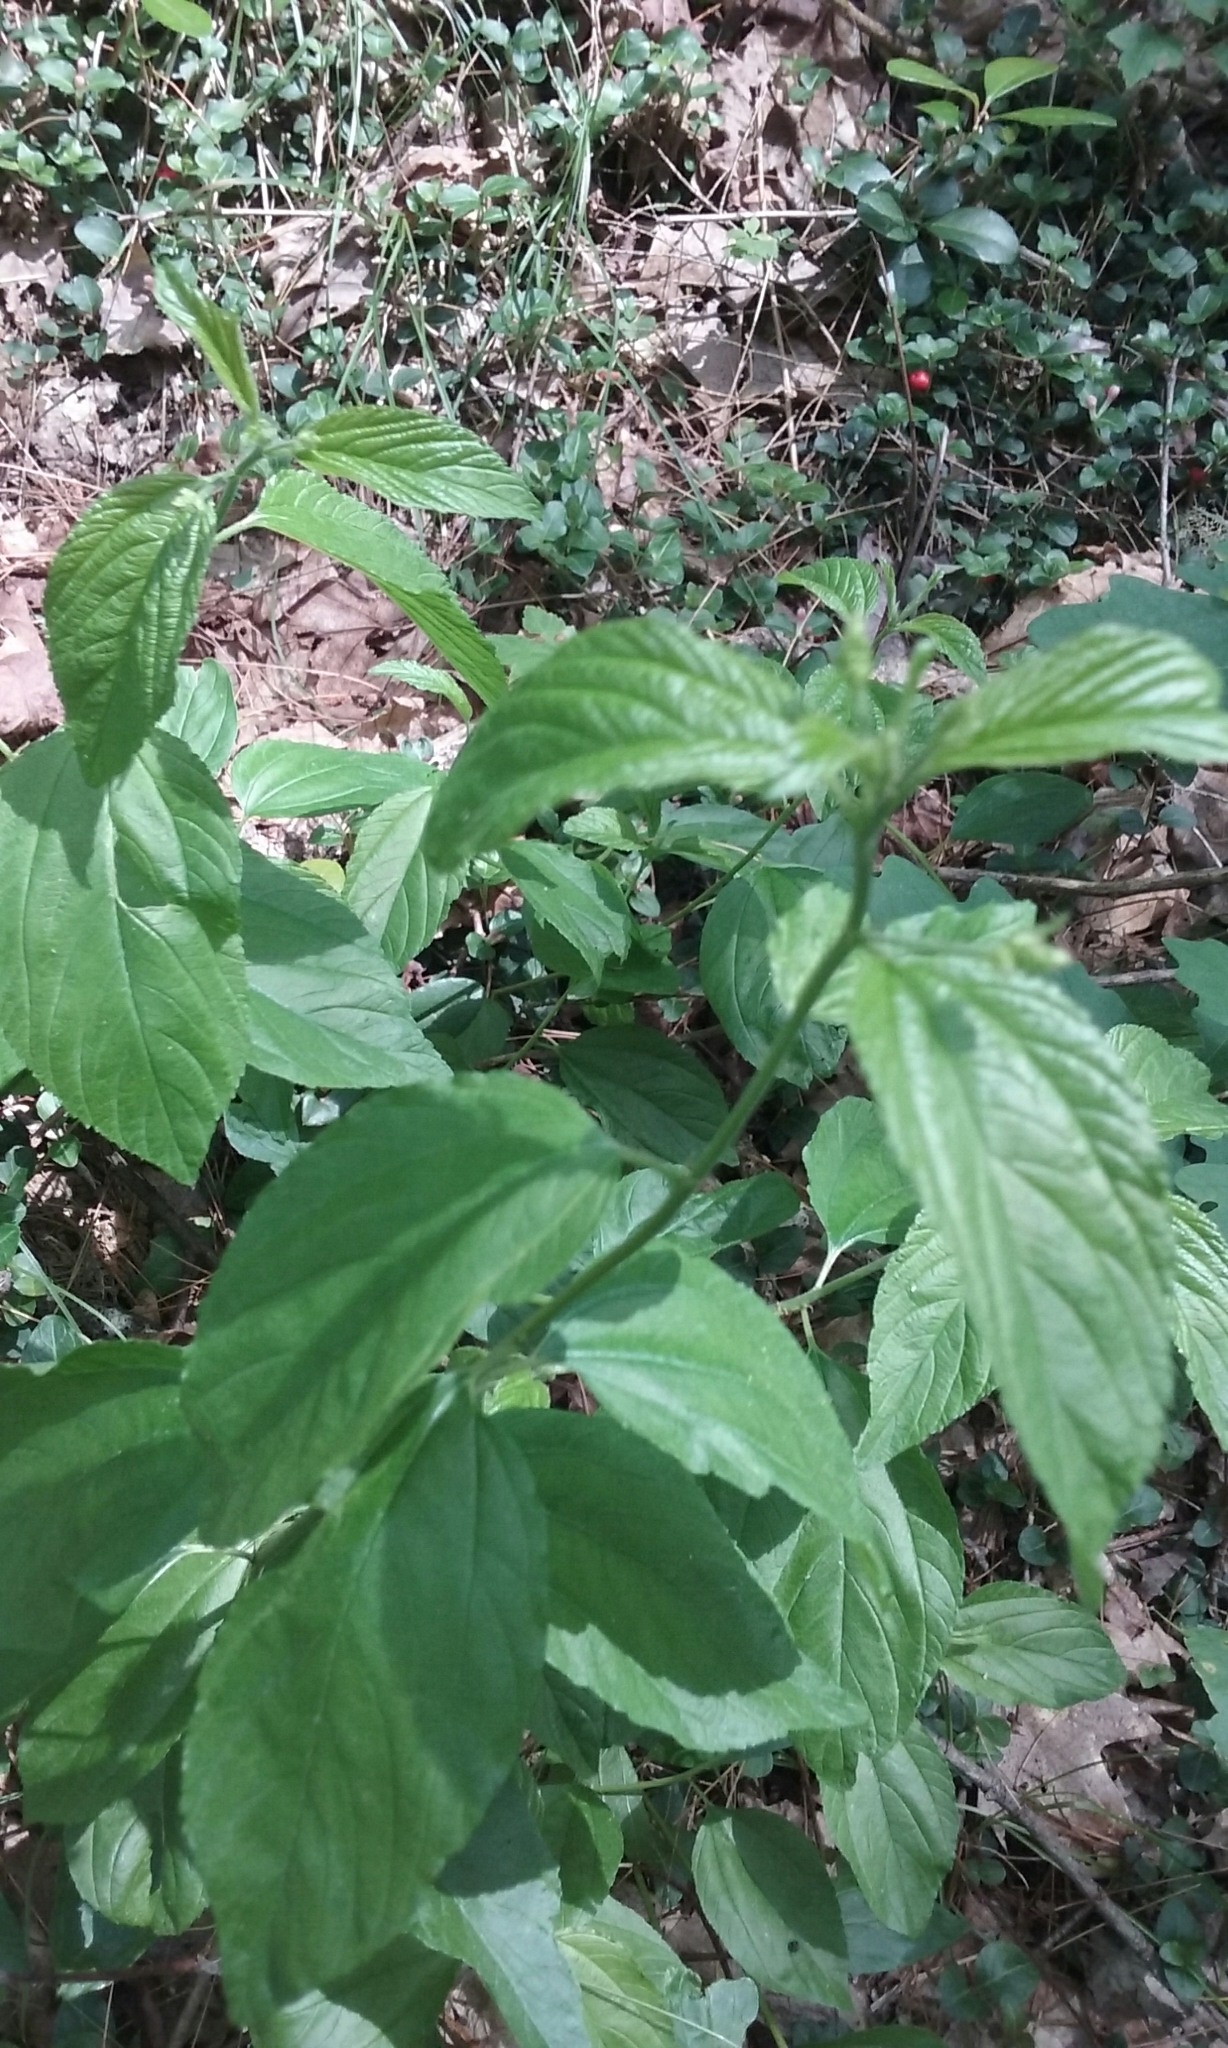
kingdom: Plantae
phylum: Tracheophyta
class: Magnoliopsida
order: Rosales
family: Rhamnaceae
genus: Ceanothus
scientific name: Ceanothus americanus
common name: Redroot
